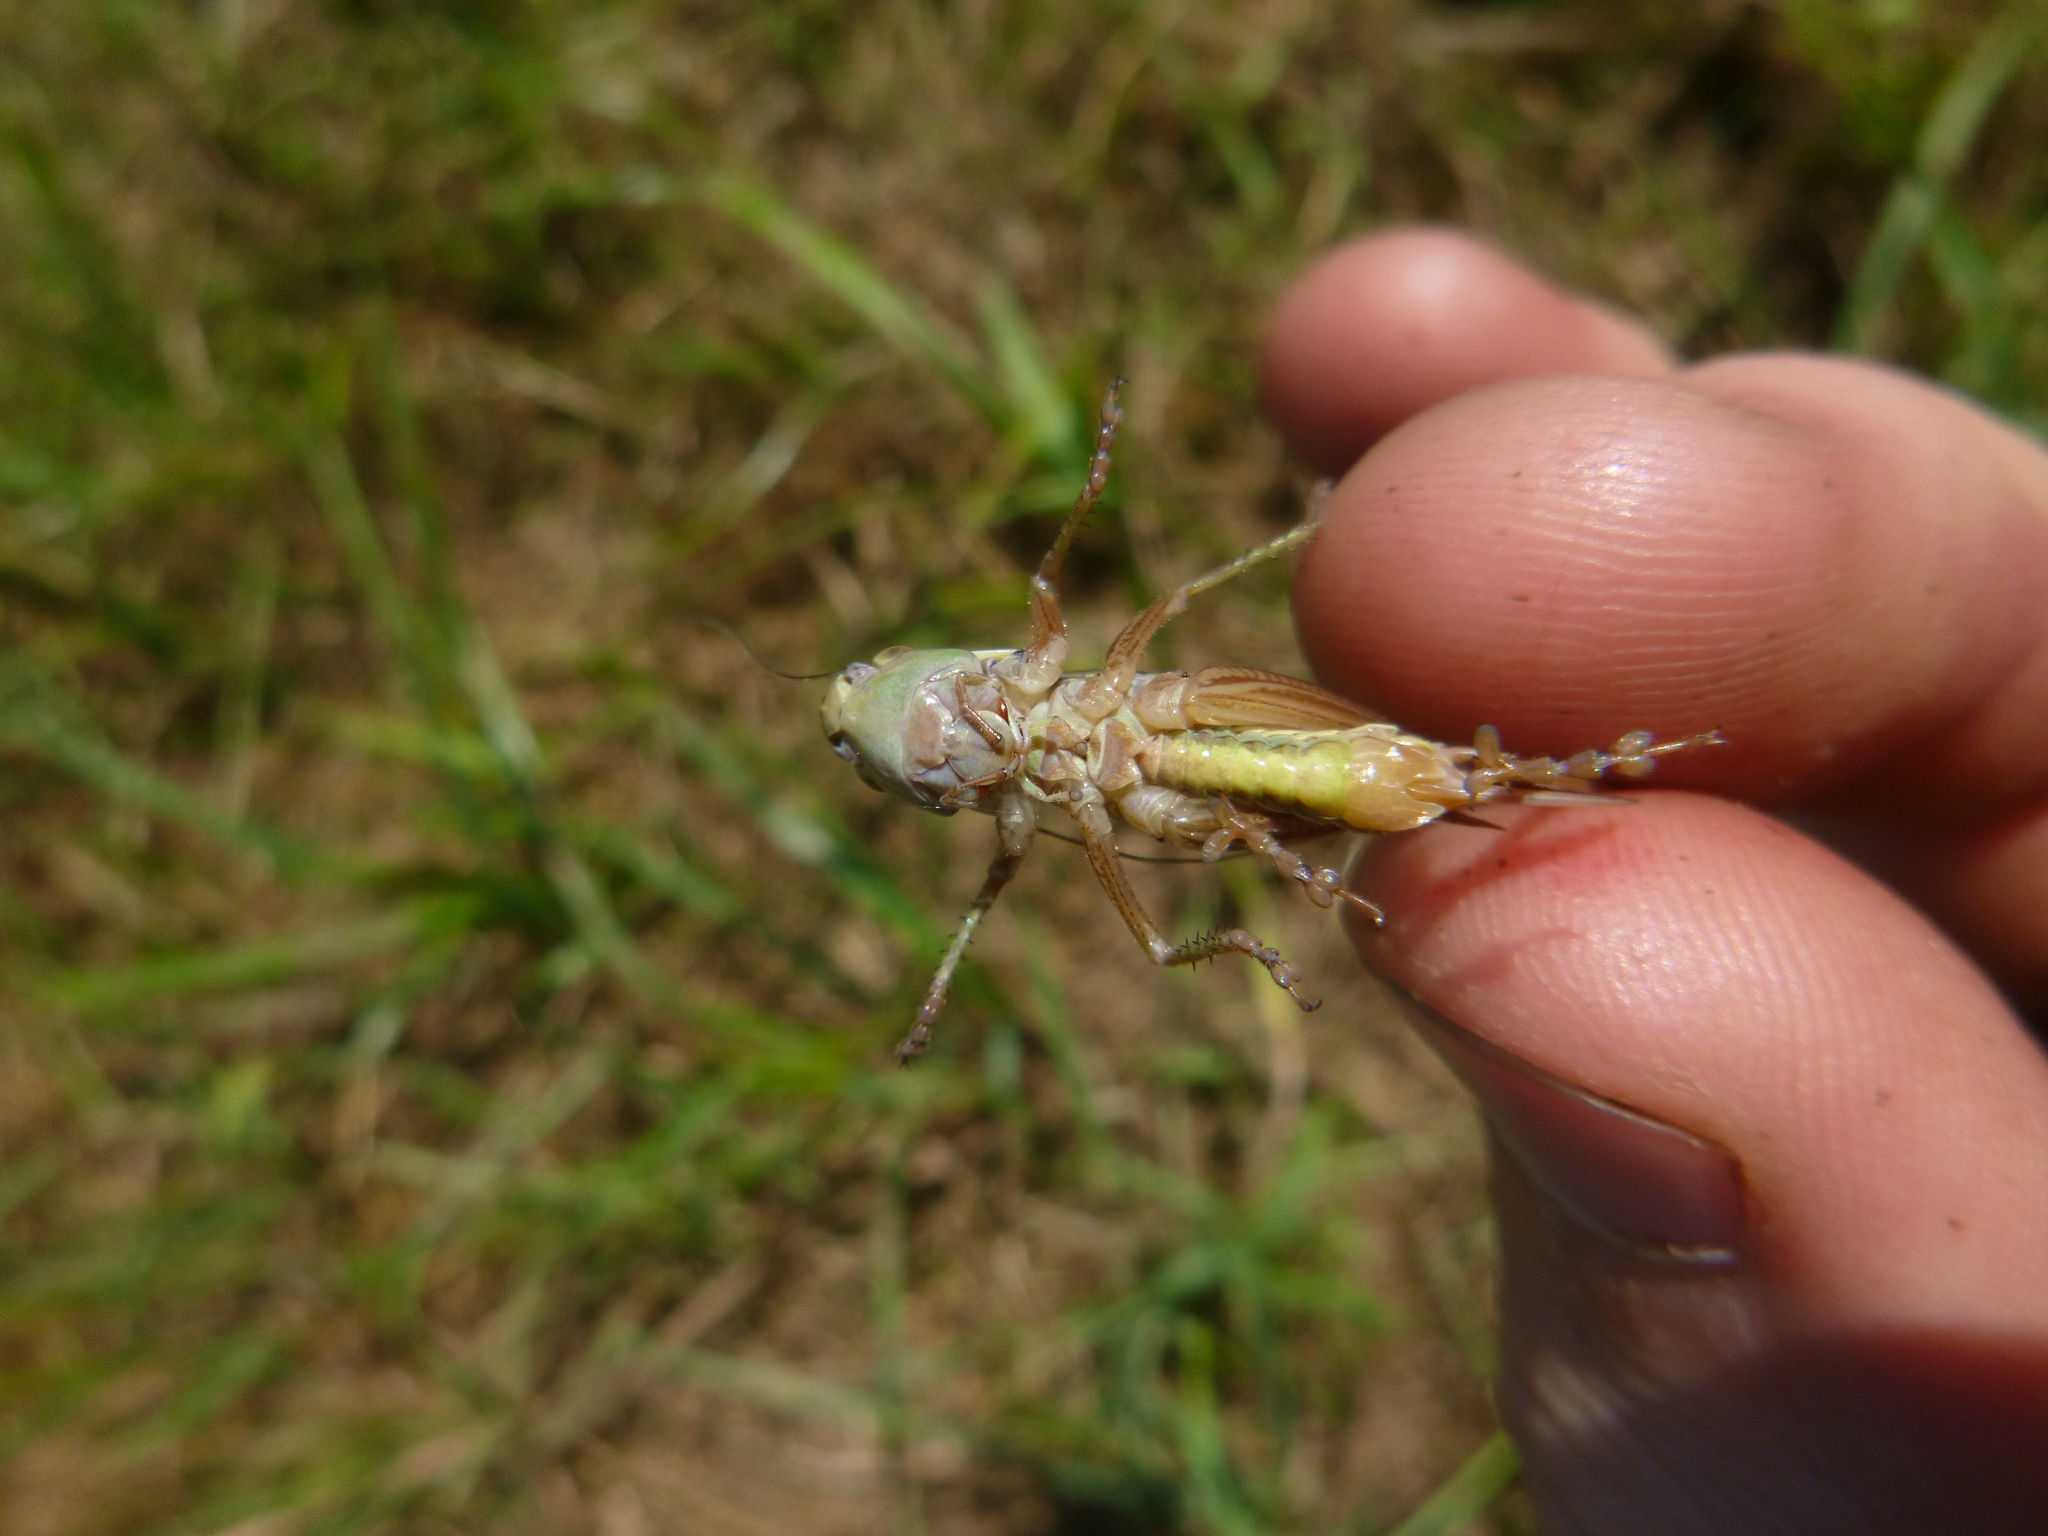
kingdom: Animalia
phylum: Arthropoda
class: Insecta
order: Orthoptera
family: Tettigoniidae
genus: Roeseliana
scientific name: Roeseliana roeselii
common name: Roesel's bush cricket
